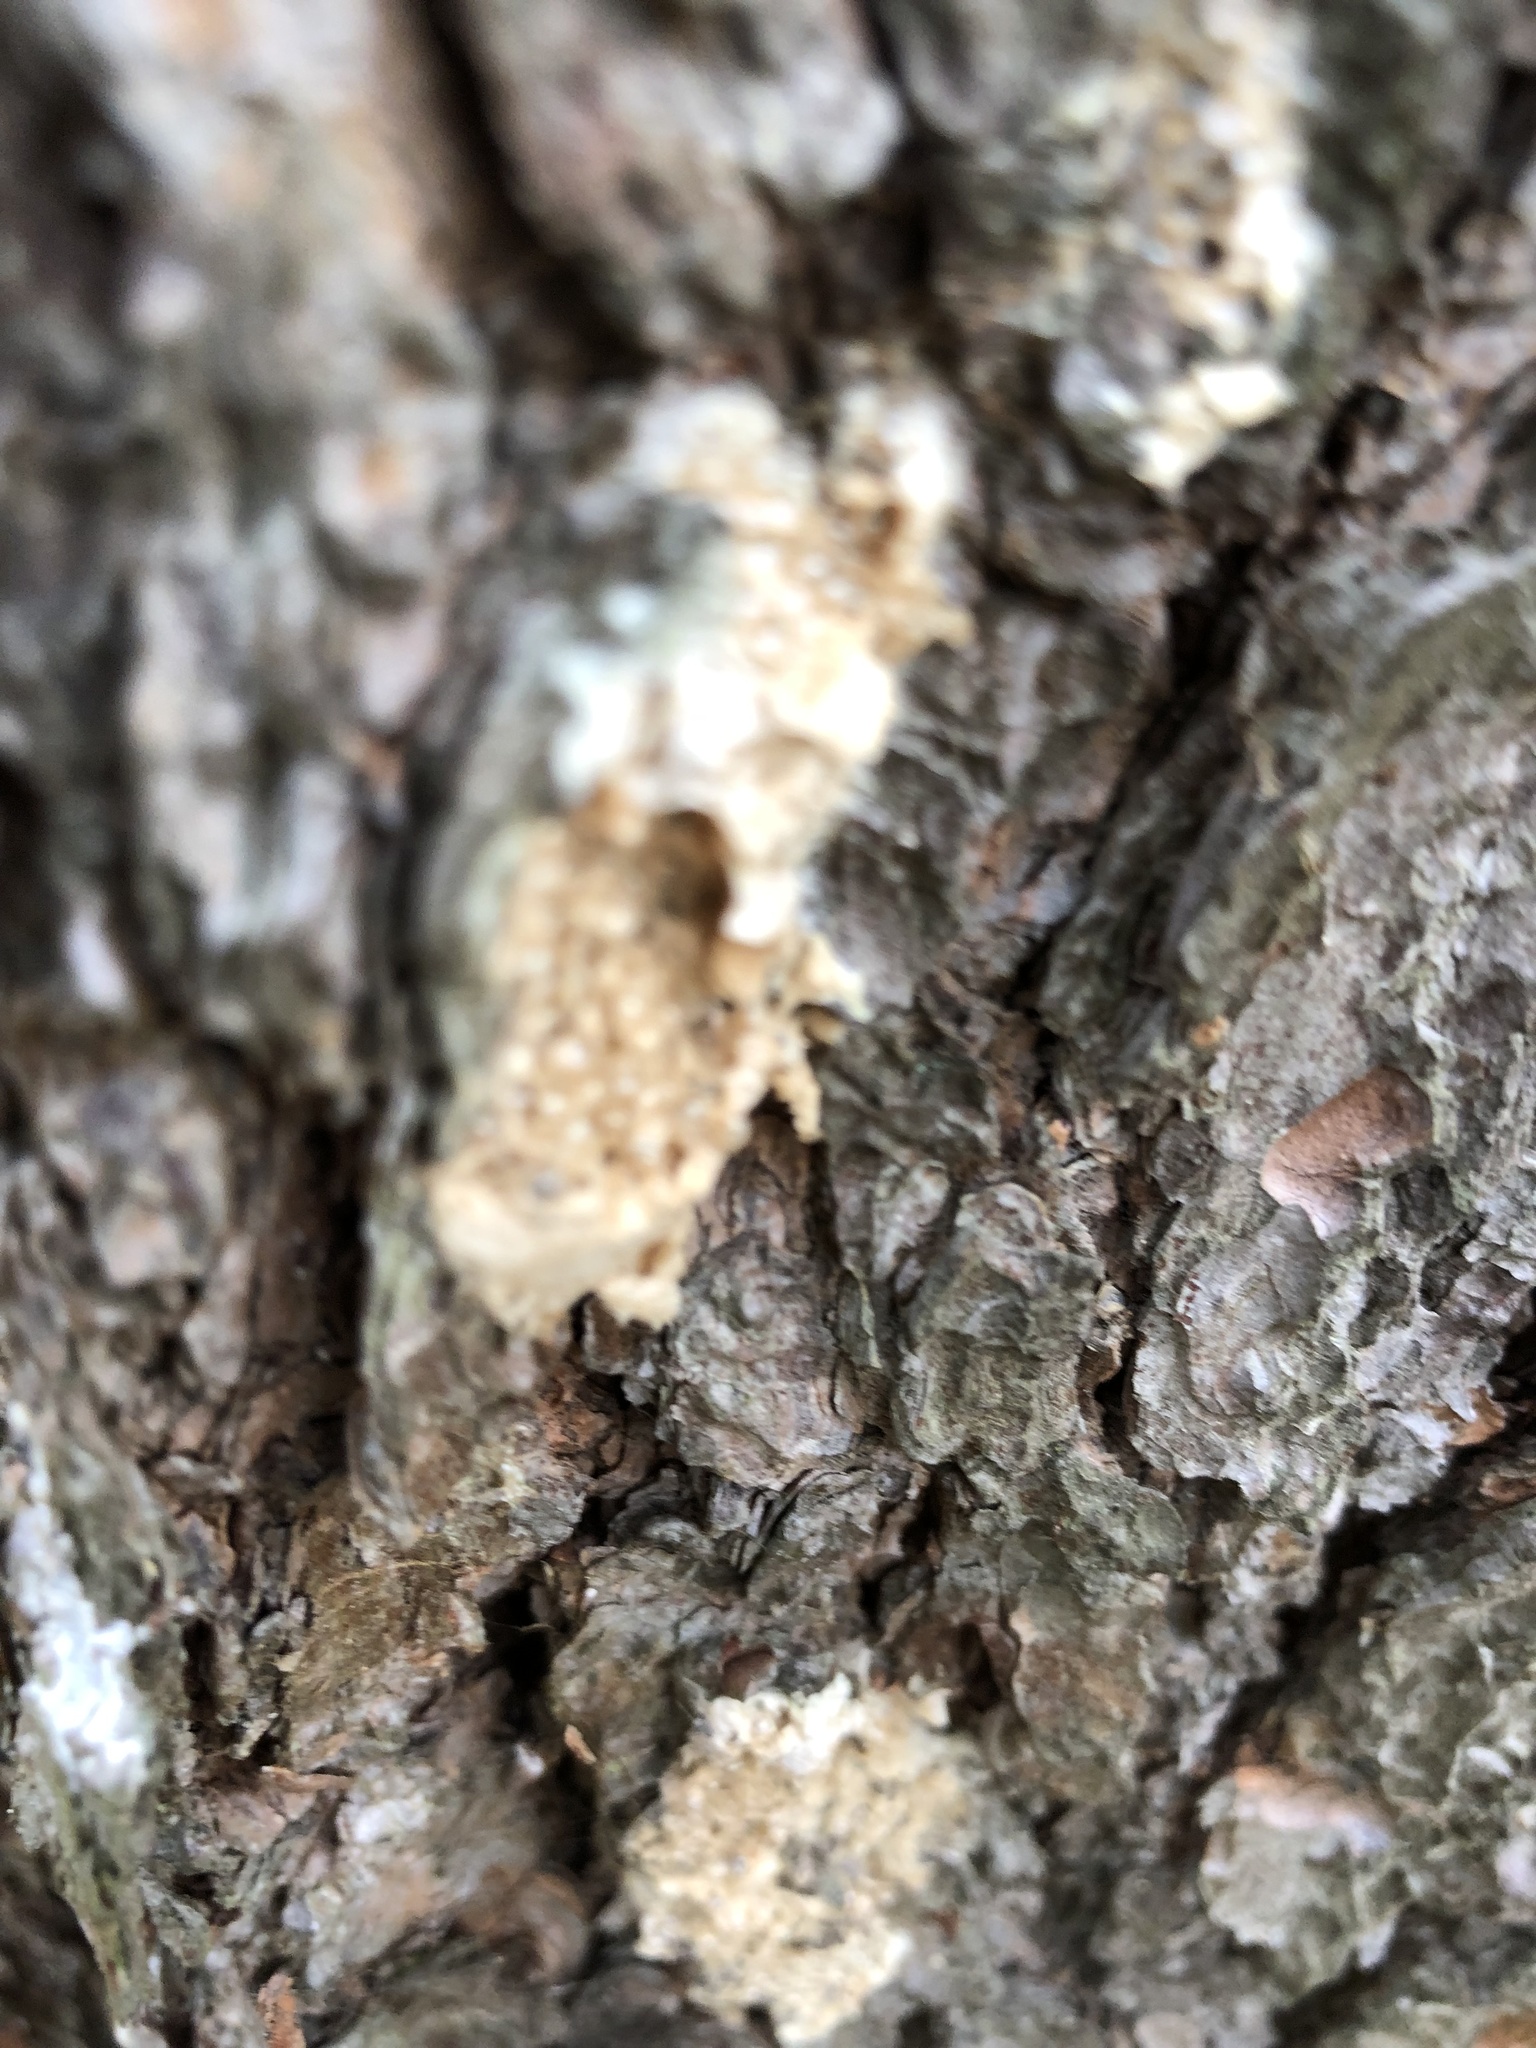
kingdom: Animalia
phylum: Arthropoda
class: Insecta
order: Lepidoptera
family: Erebidae
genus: Lymantria
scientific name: Lymantria dispar
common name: Gypsy moth
